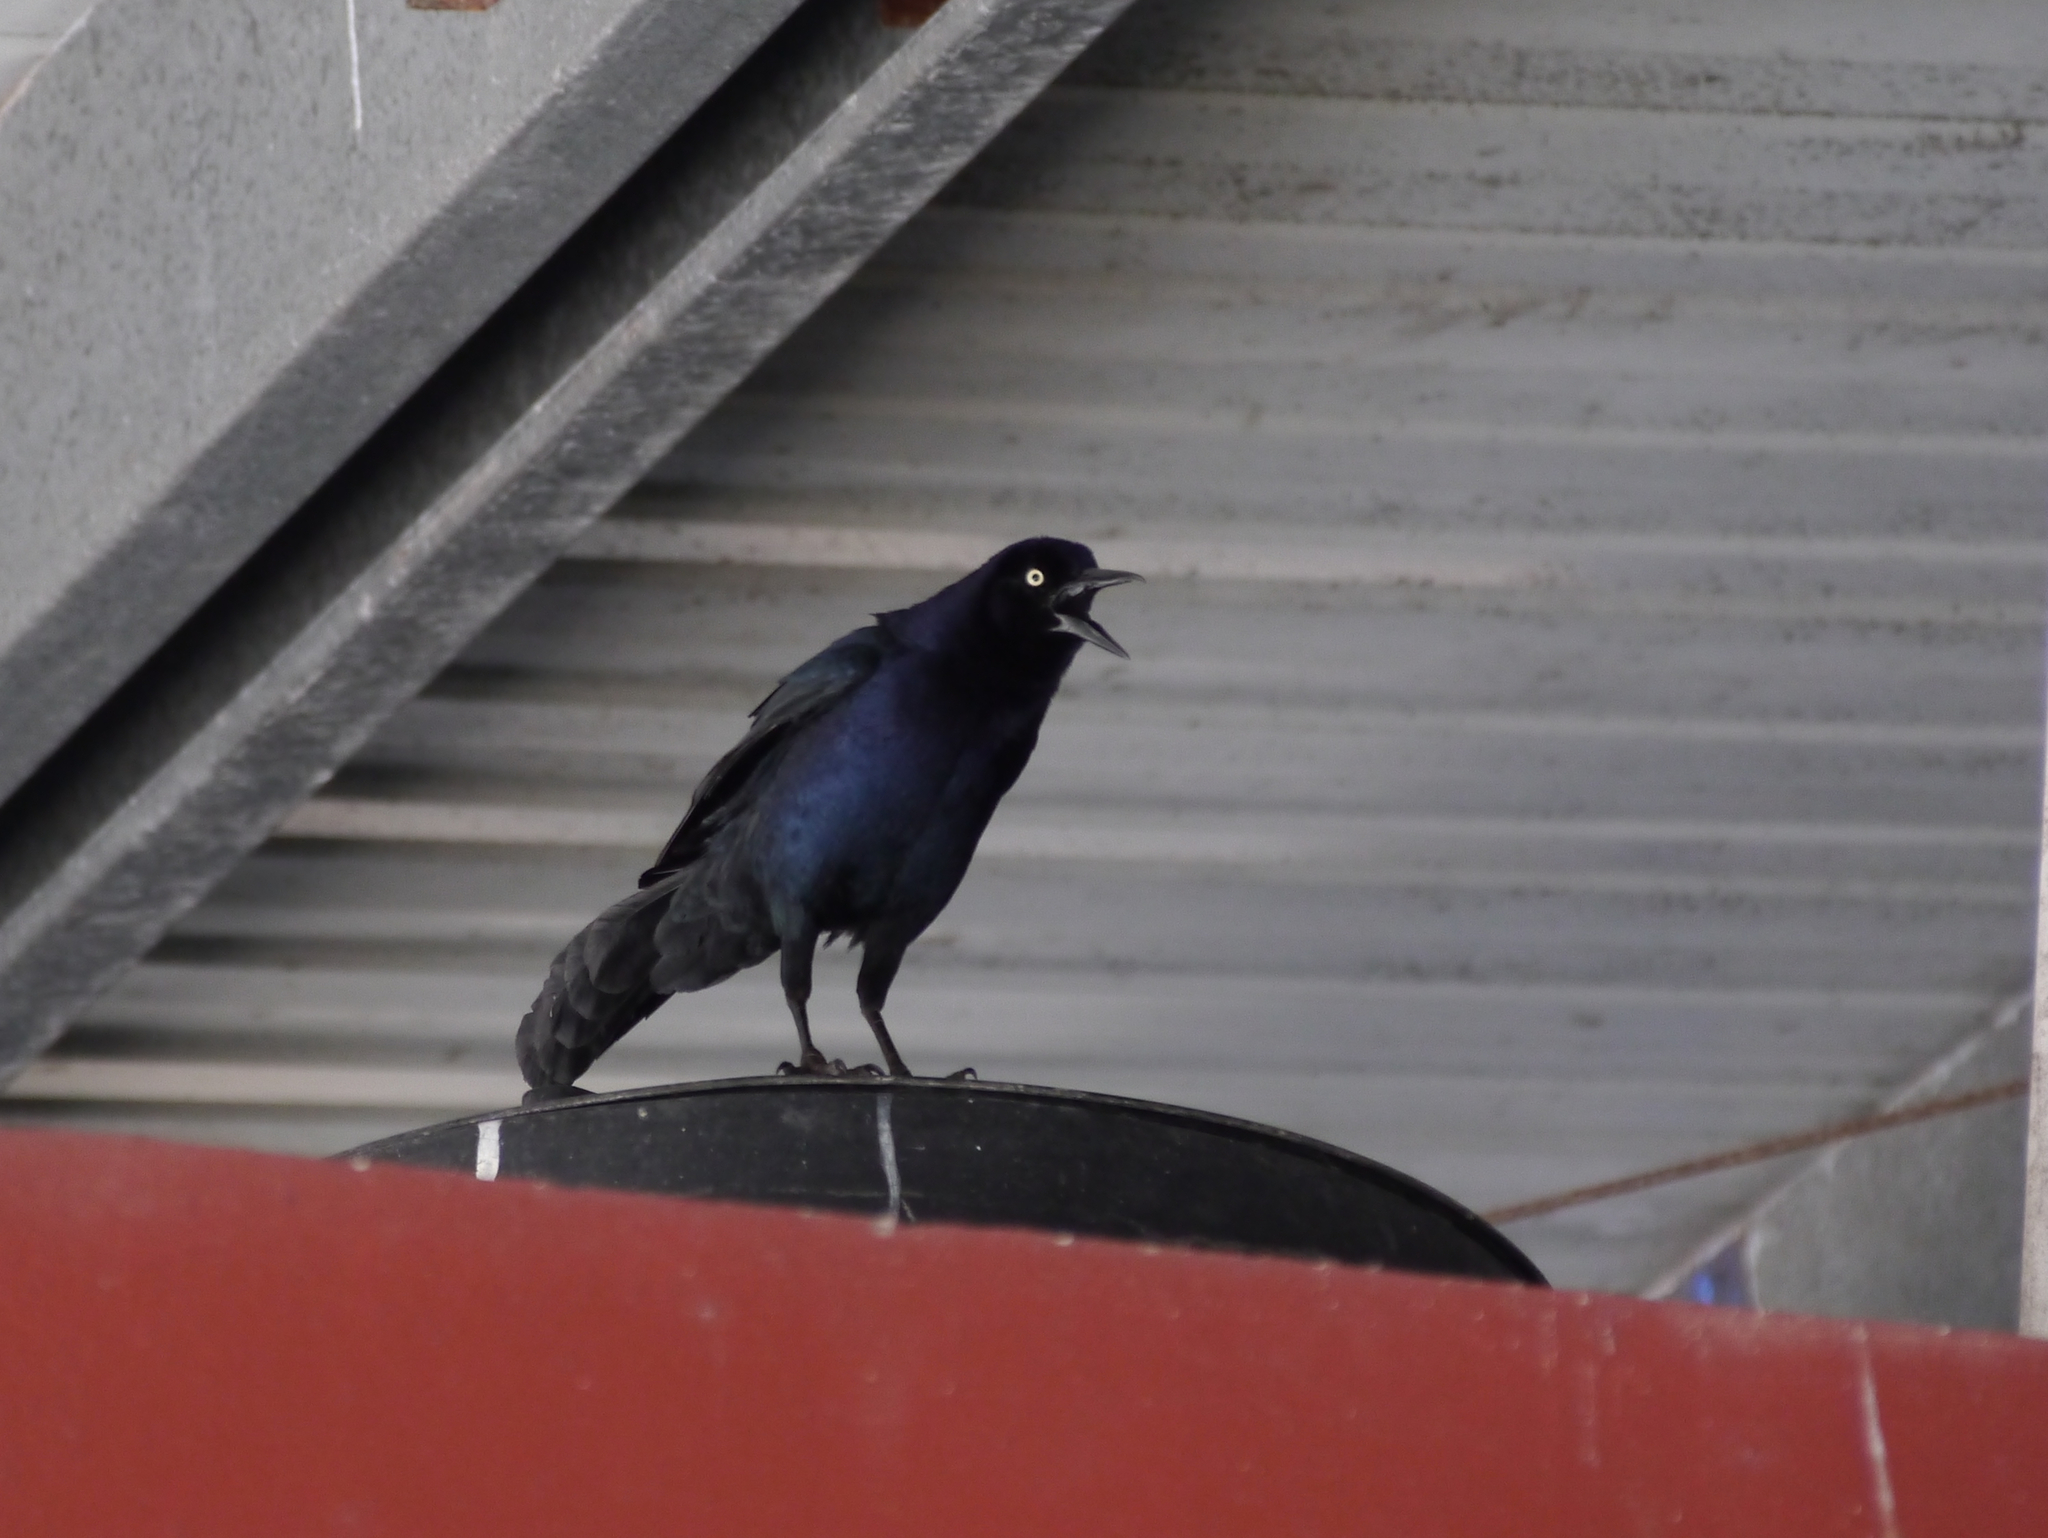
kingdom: Animalia
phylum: Chordata
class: Aves
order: Passeriformes
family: Icteridae
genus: Quiscalus
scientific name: Quiscalus mexicanus
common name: Great-tailed grackle
